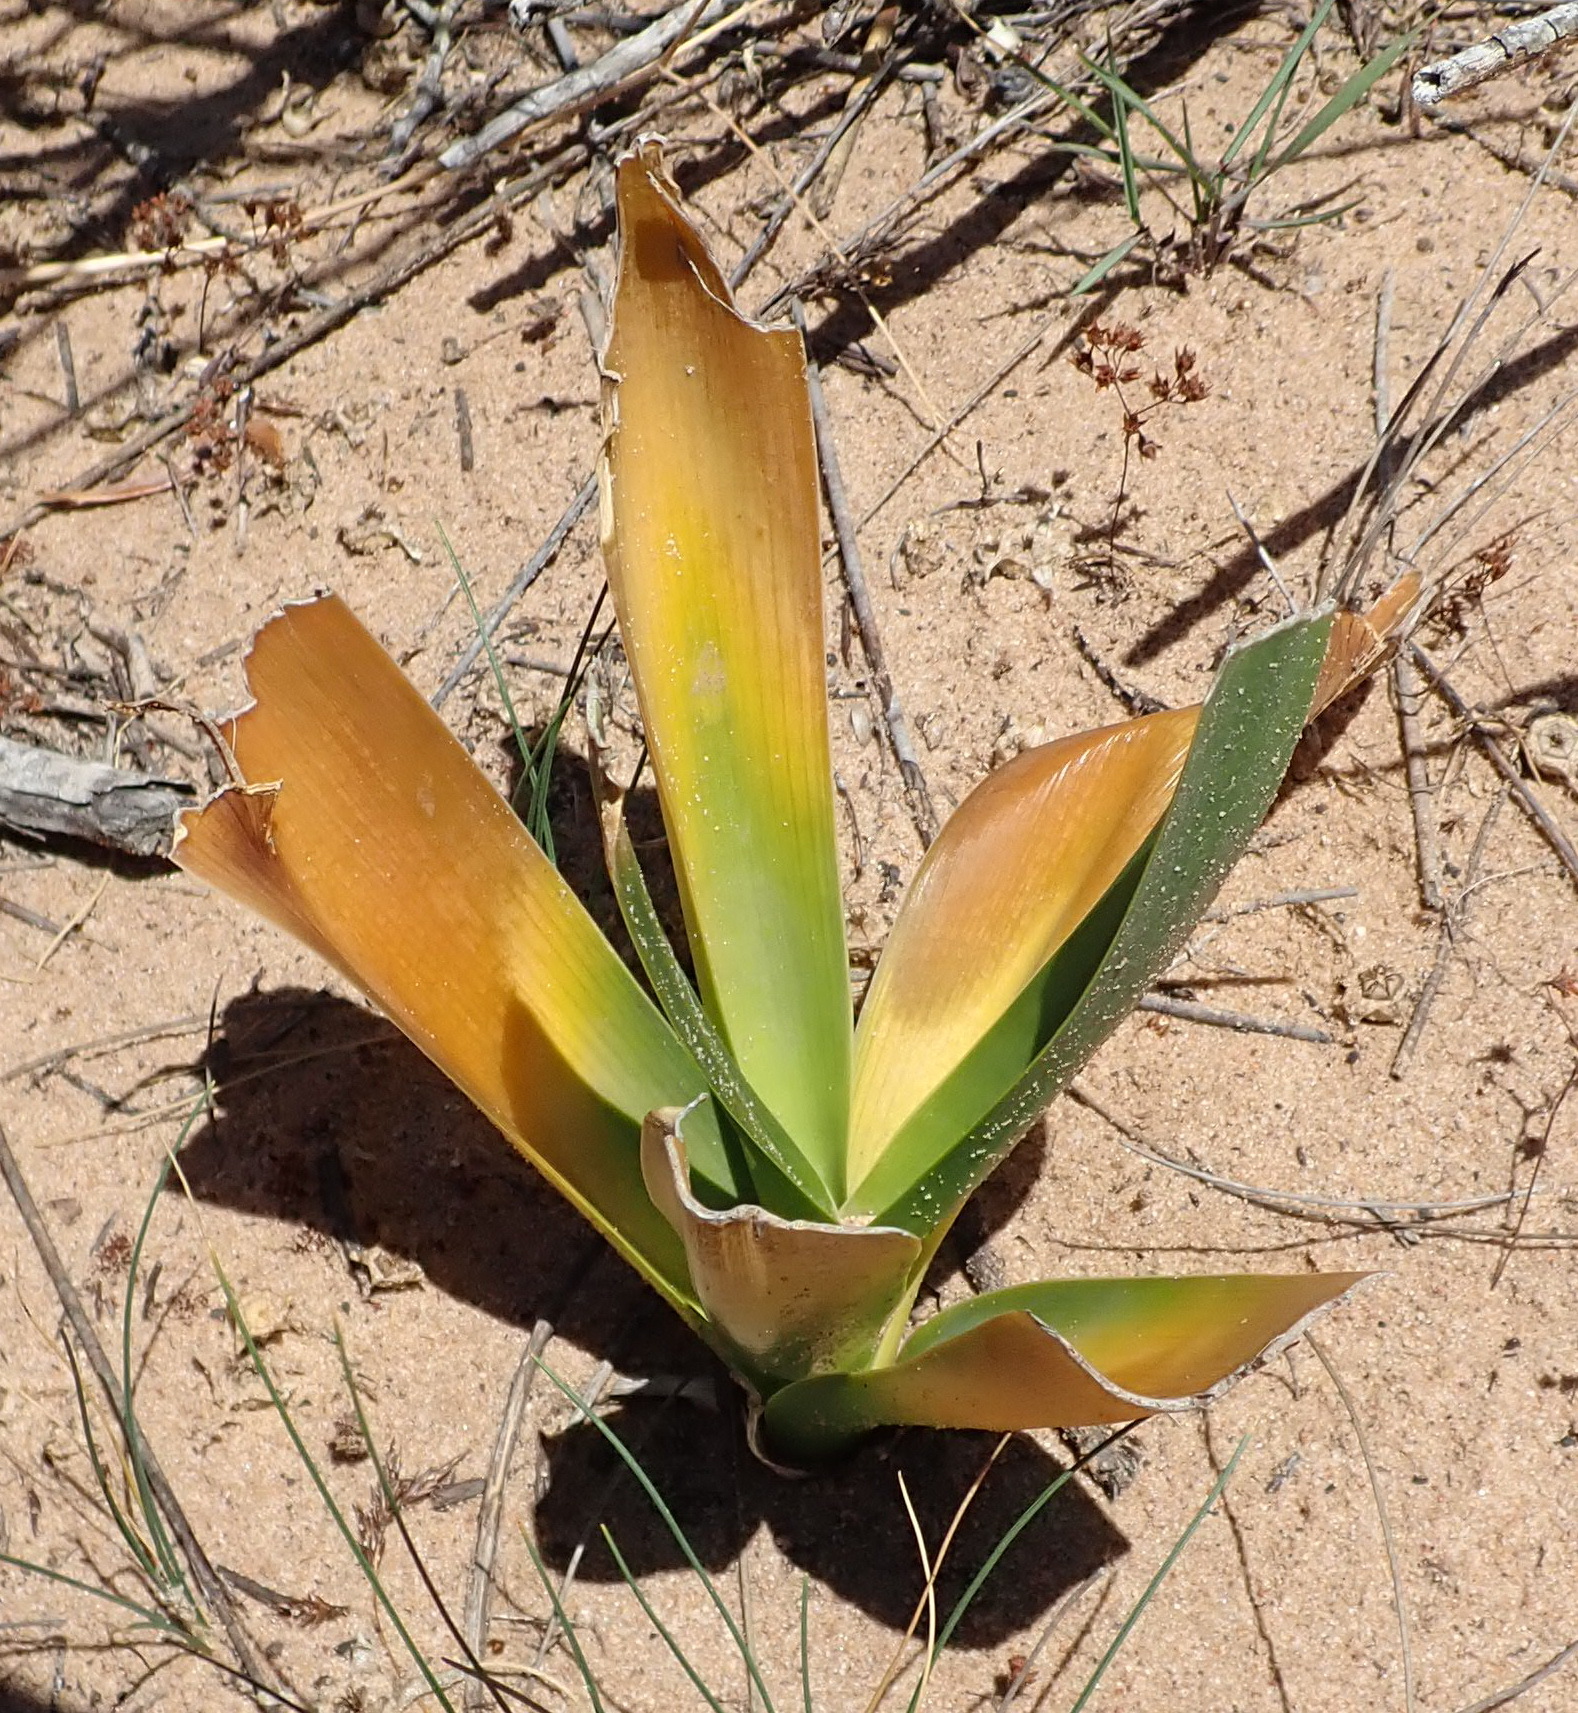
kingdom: Plantae
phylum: Tracheophyta
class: Liliopsida
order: Asparagales
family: Asparagaceae
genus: Drimia
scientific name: Drimia capensis
